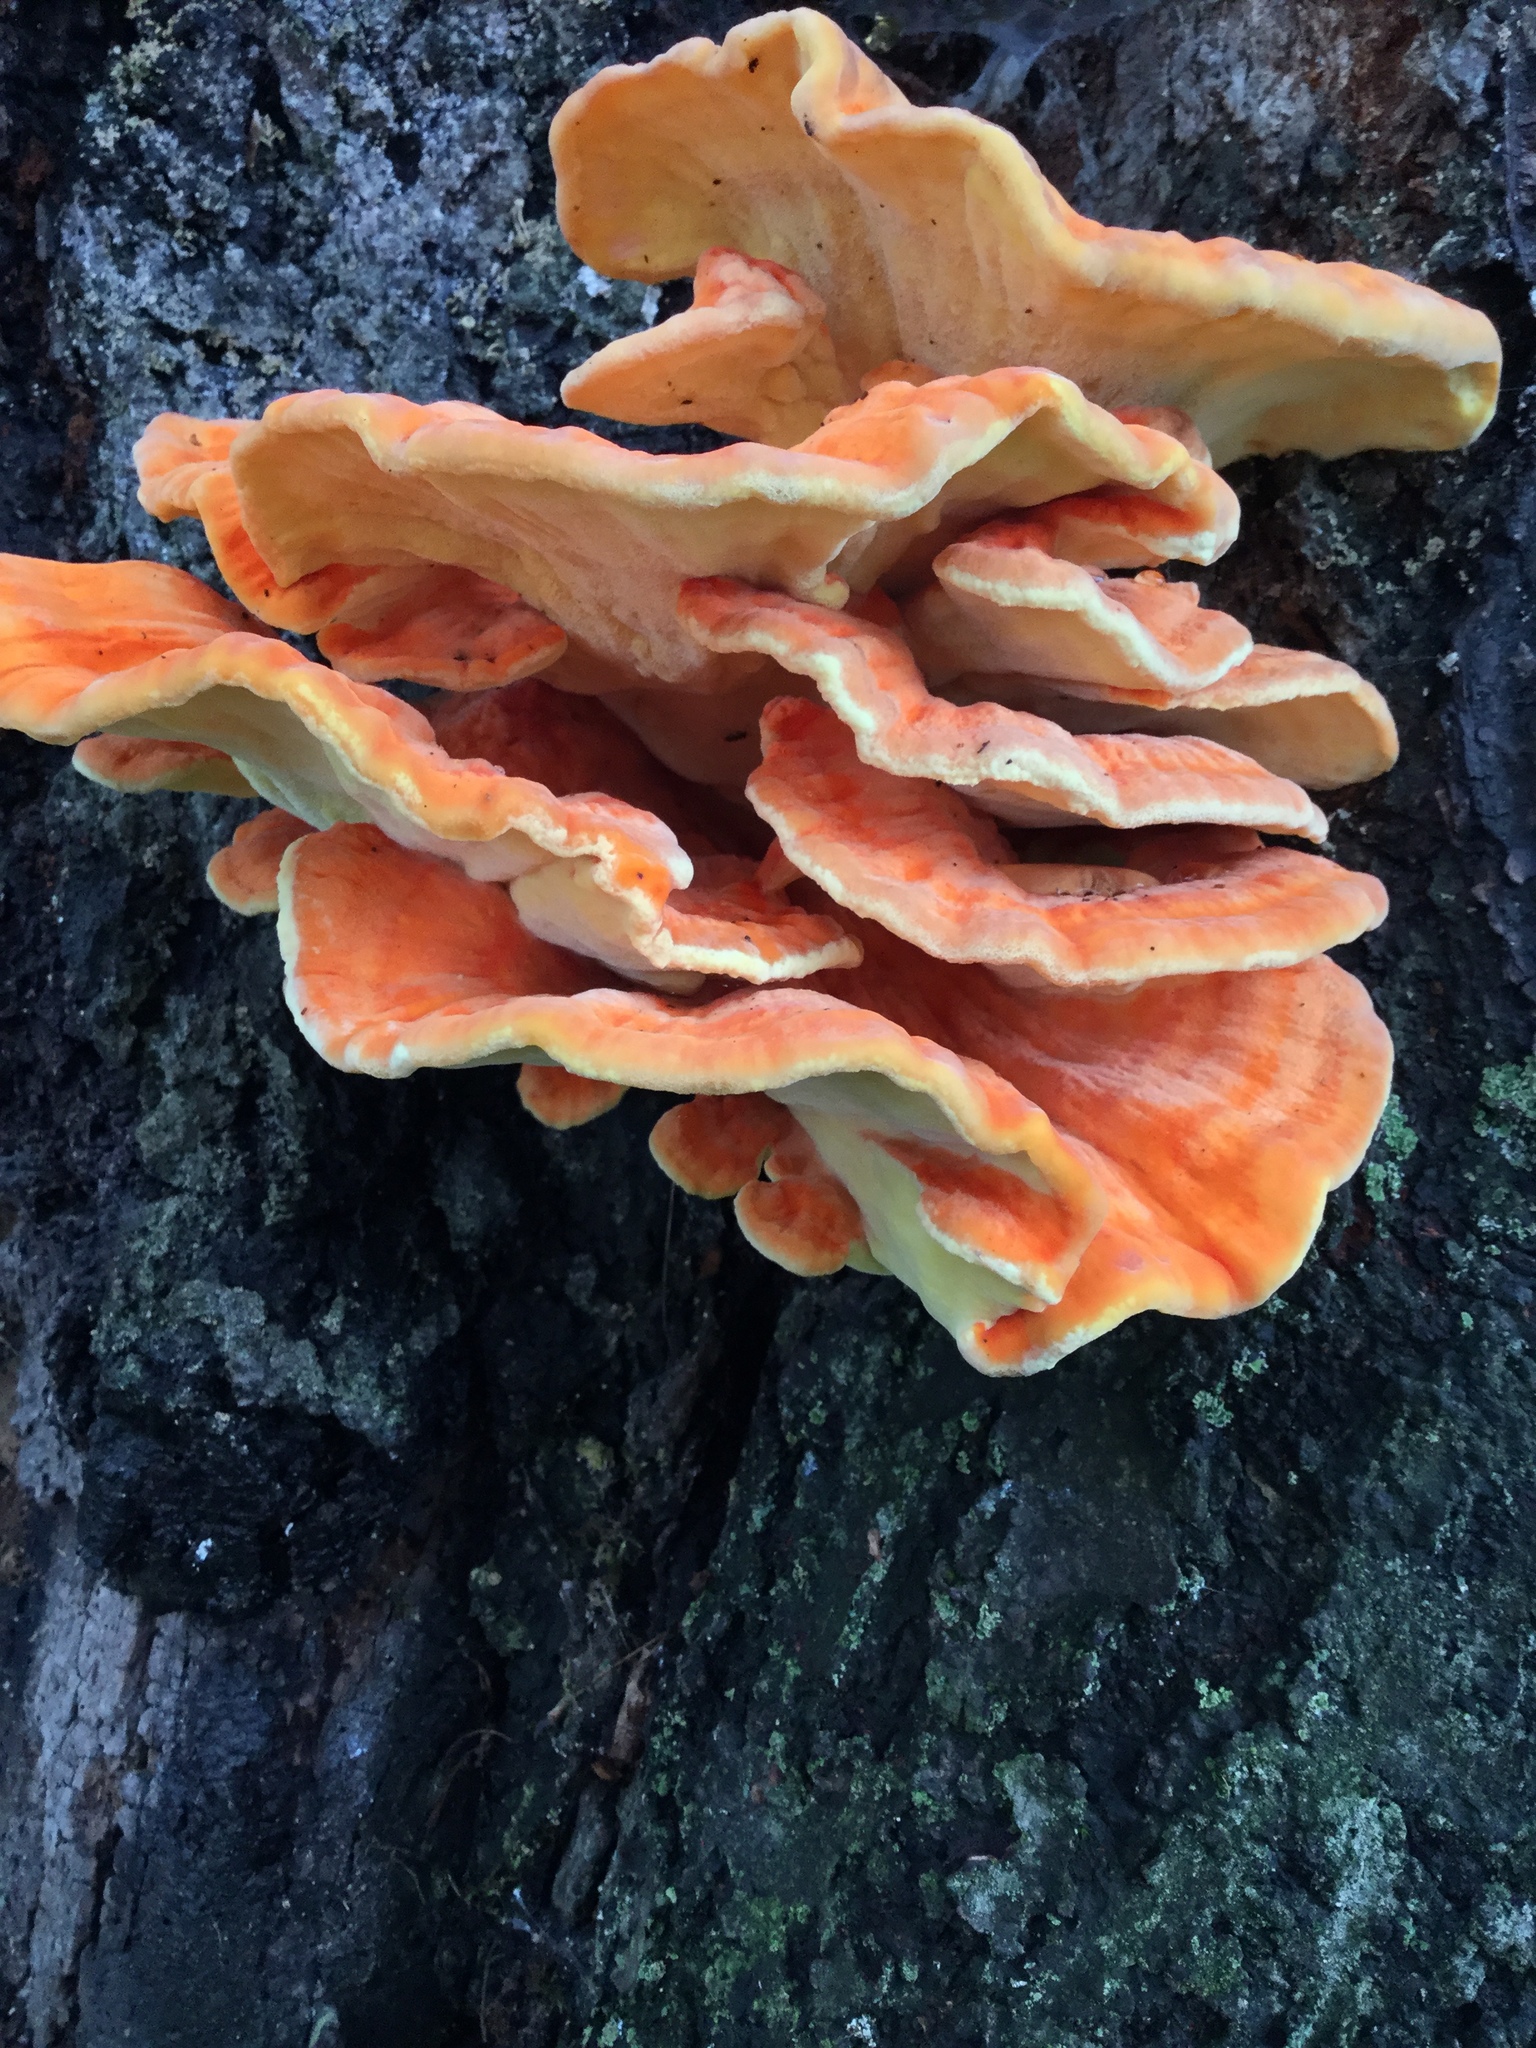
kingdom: Fungi
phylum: Basidiomycota
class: Agaricomycetes
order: Polyporales
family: Laetiporaceae
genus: Laetiporus
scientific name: Laetiporus gilbertsonii
